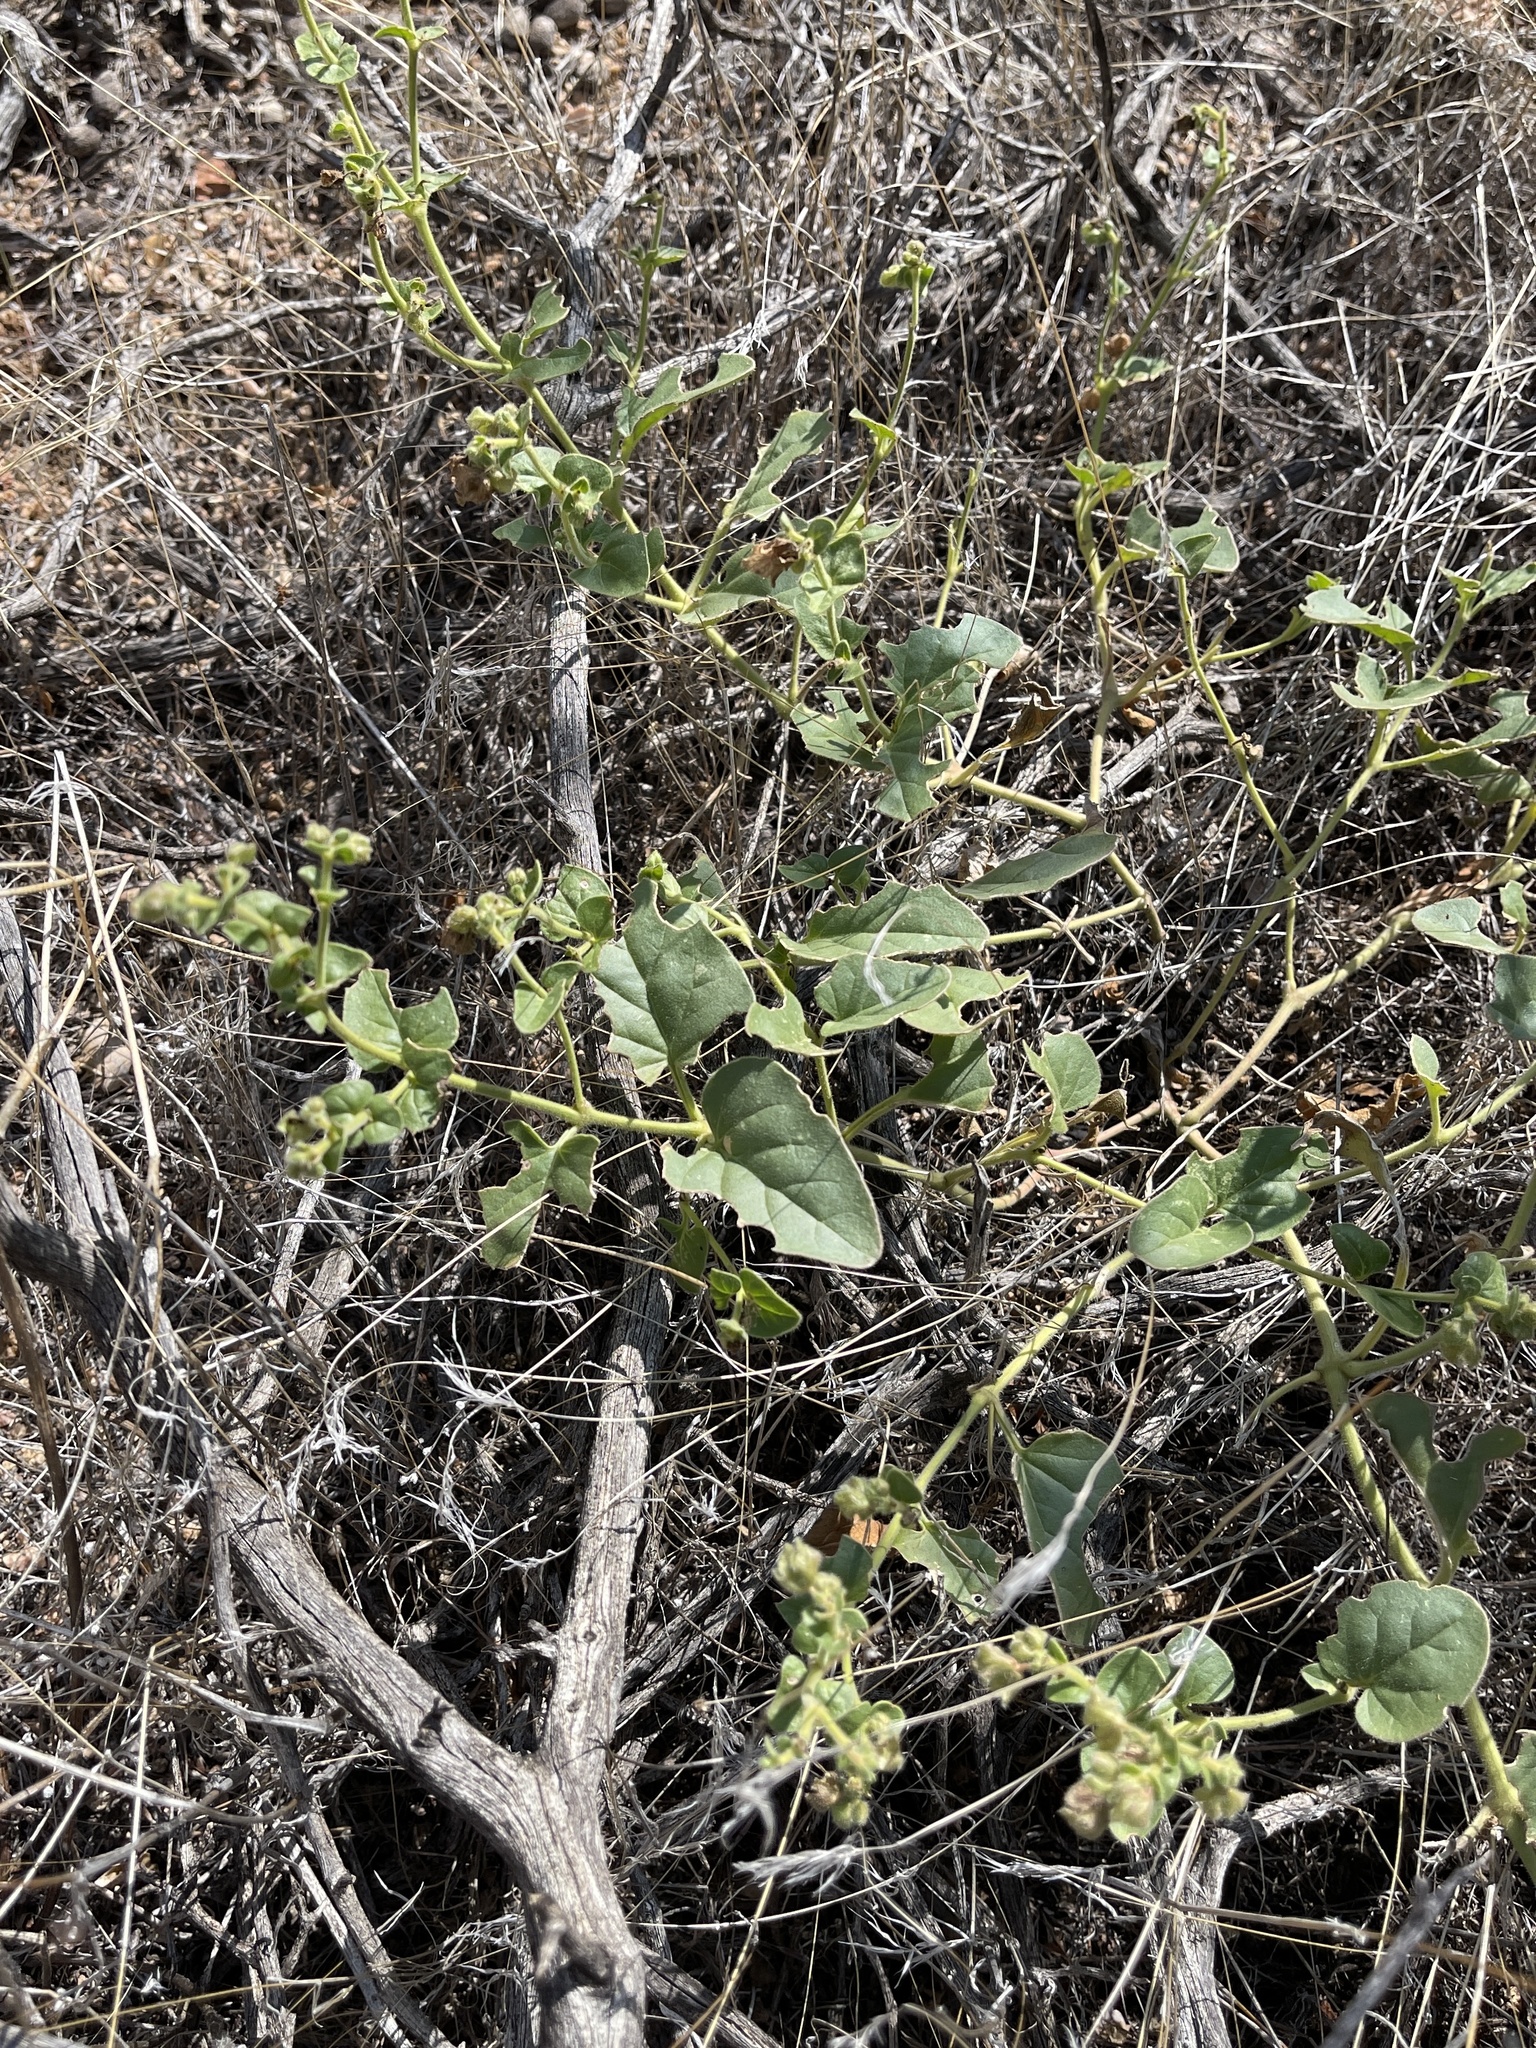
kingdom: Plantae
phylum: Tracheophyta
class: Magnoliopsida
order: Solanales
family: Solanaceae
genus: Physalis
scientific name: Physalis crassifolia
